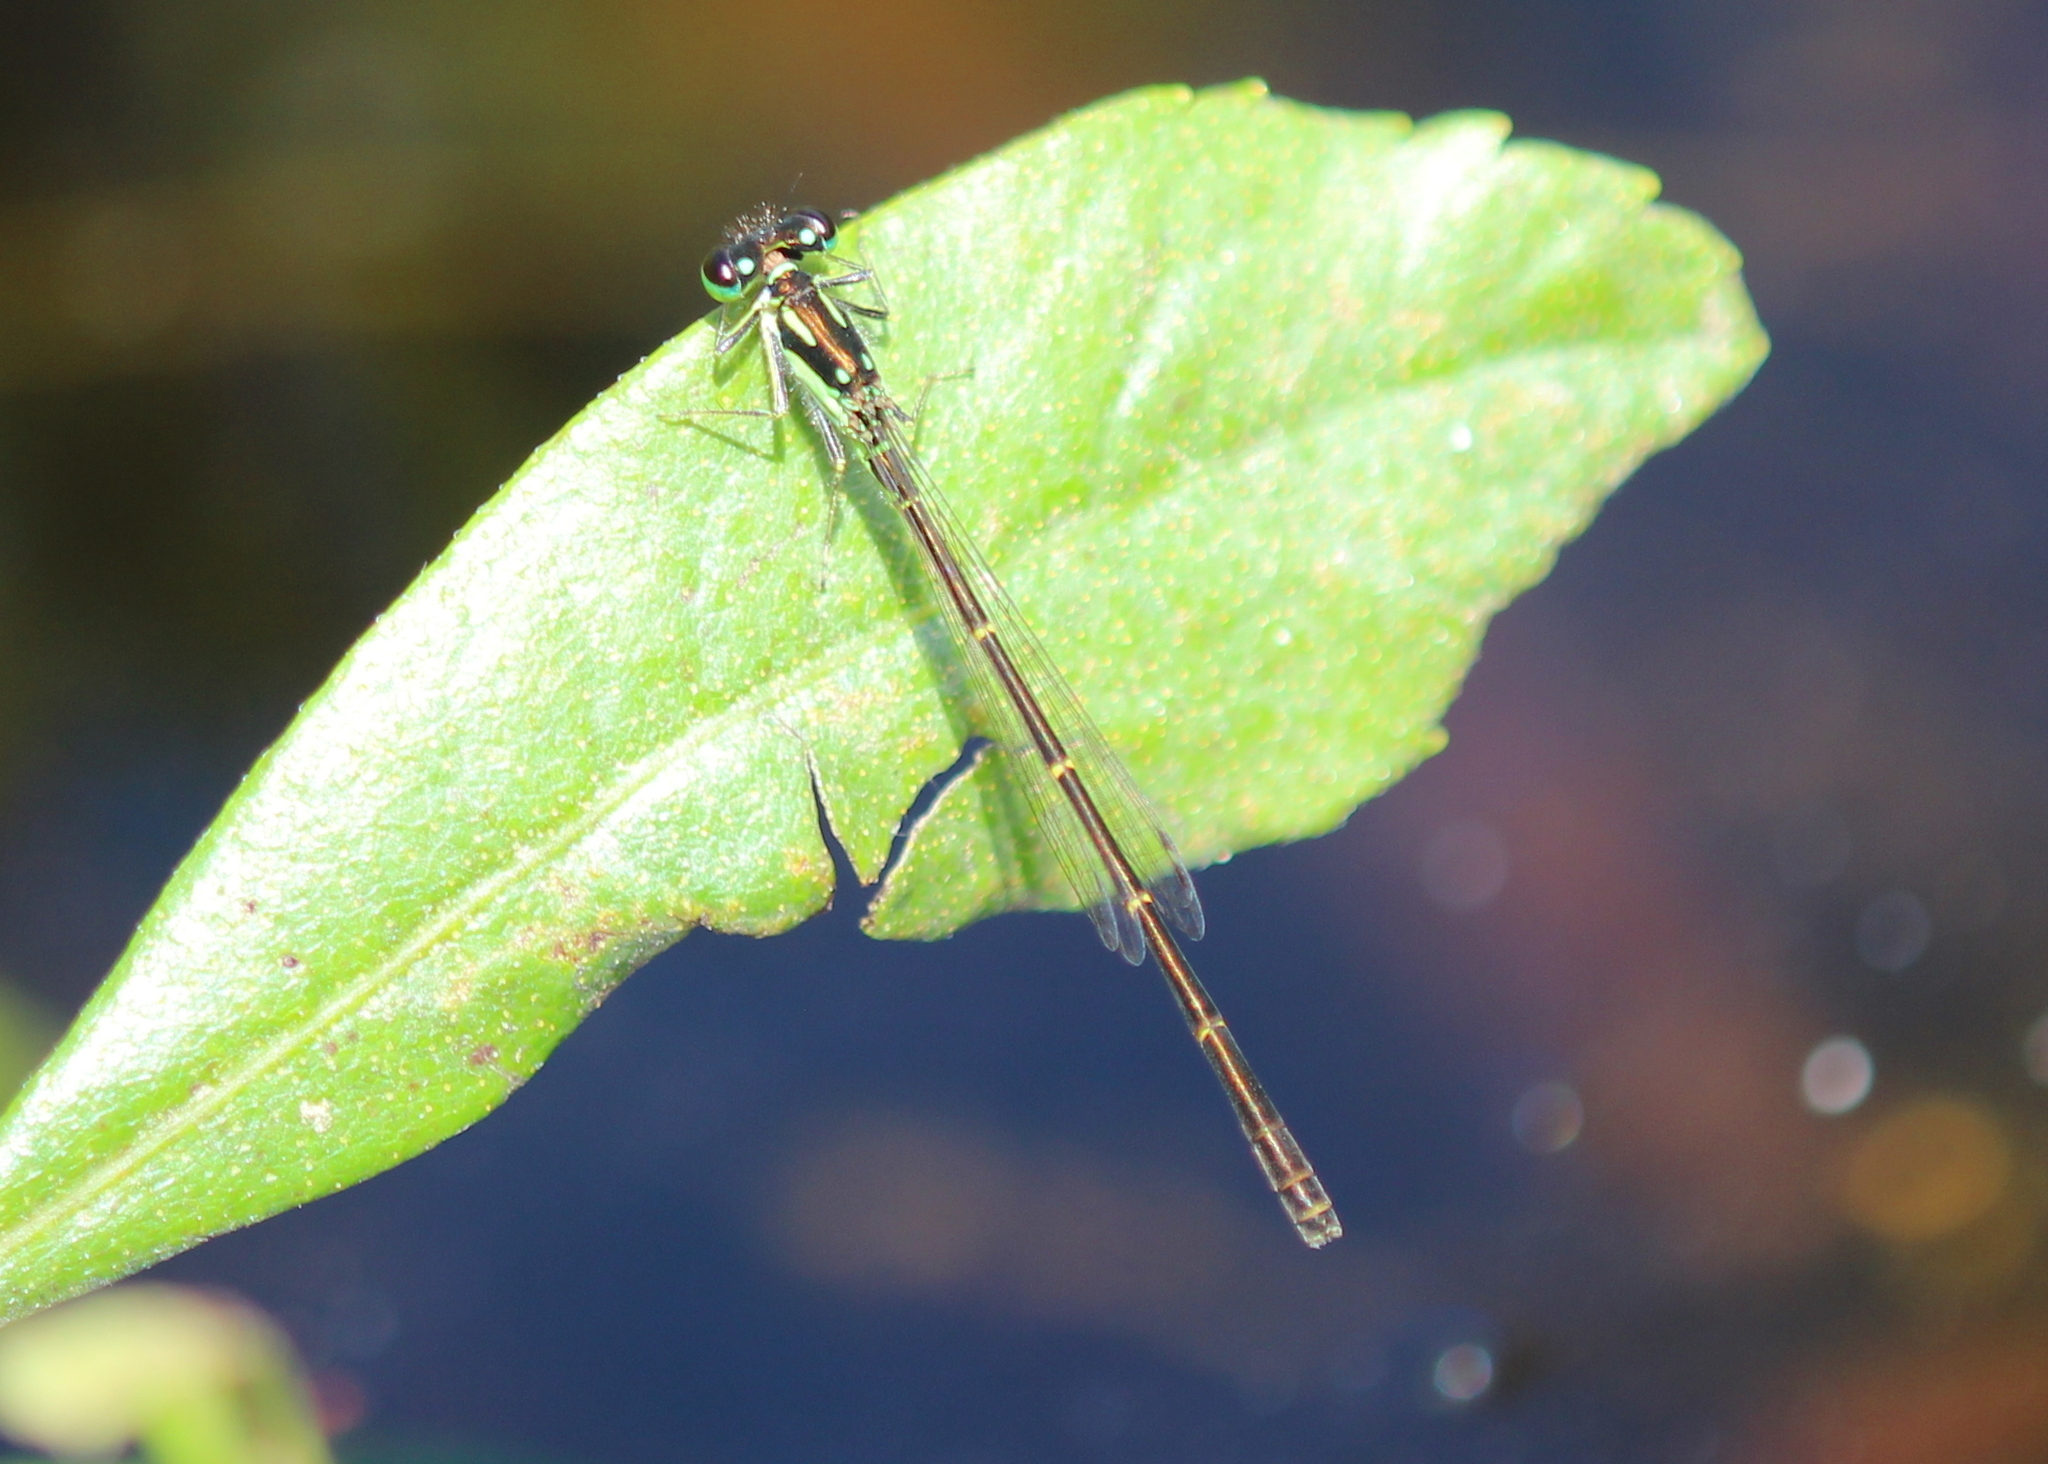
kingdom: Animalia
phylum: Arthropoda
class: Insecta
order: Odonata
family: Coenagrionidae
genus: Ischnura
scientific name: Ischnura posita
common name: Fragile forktail
